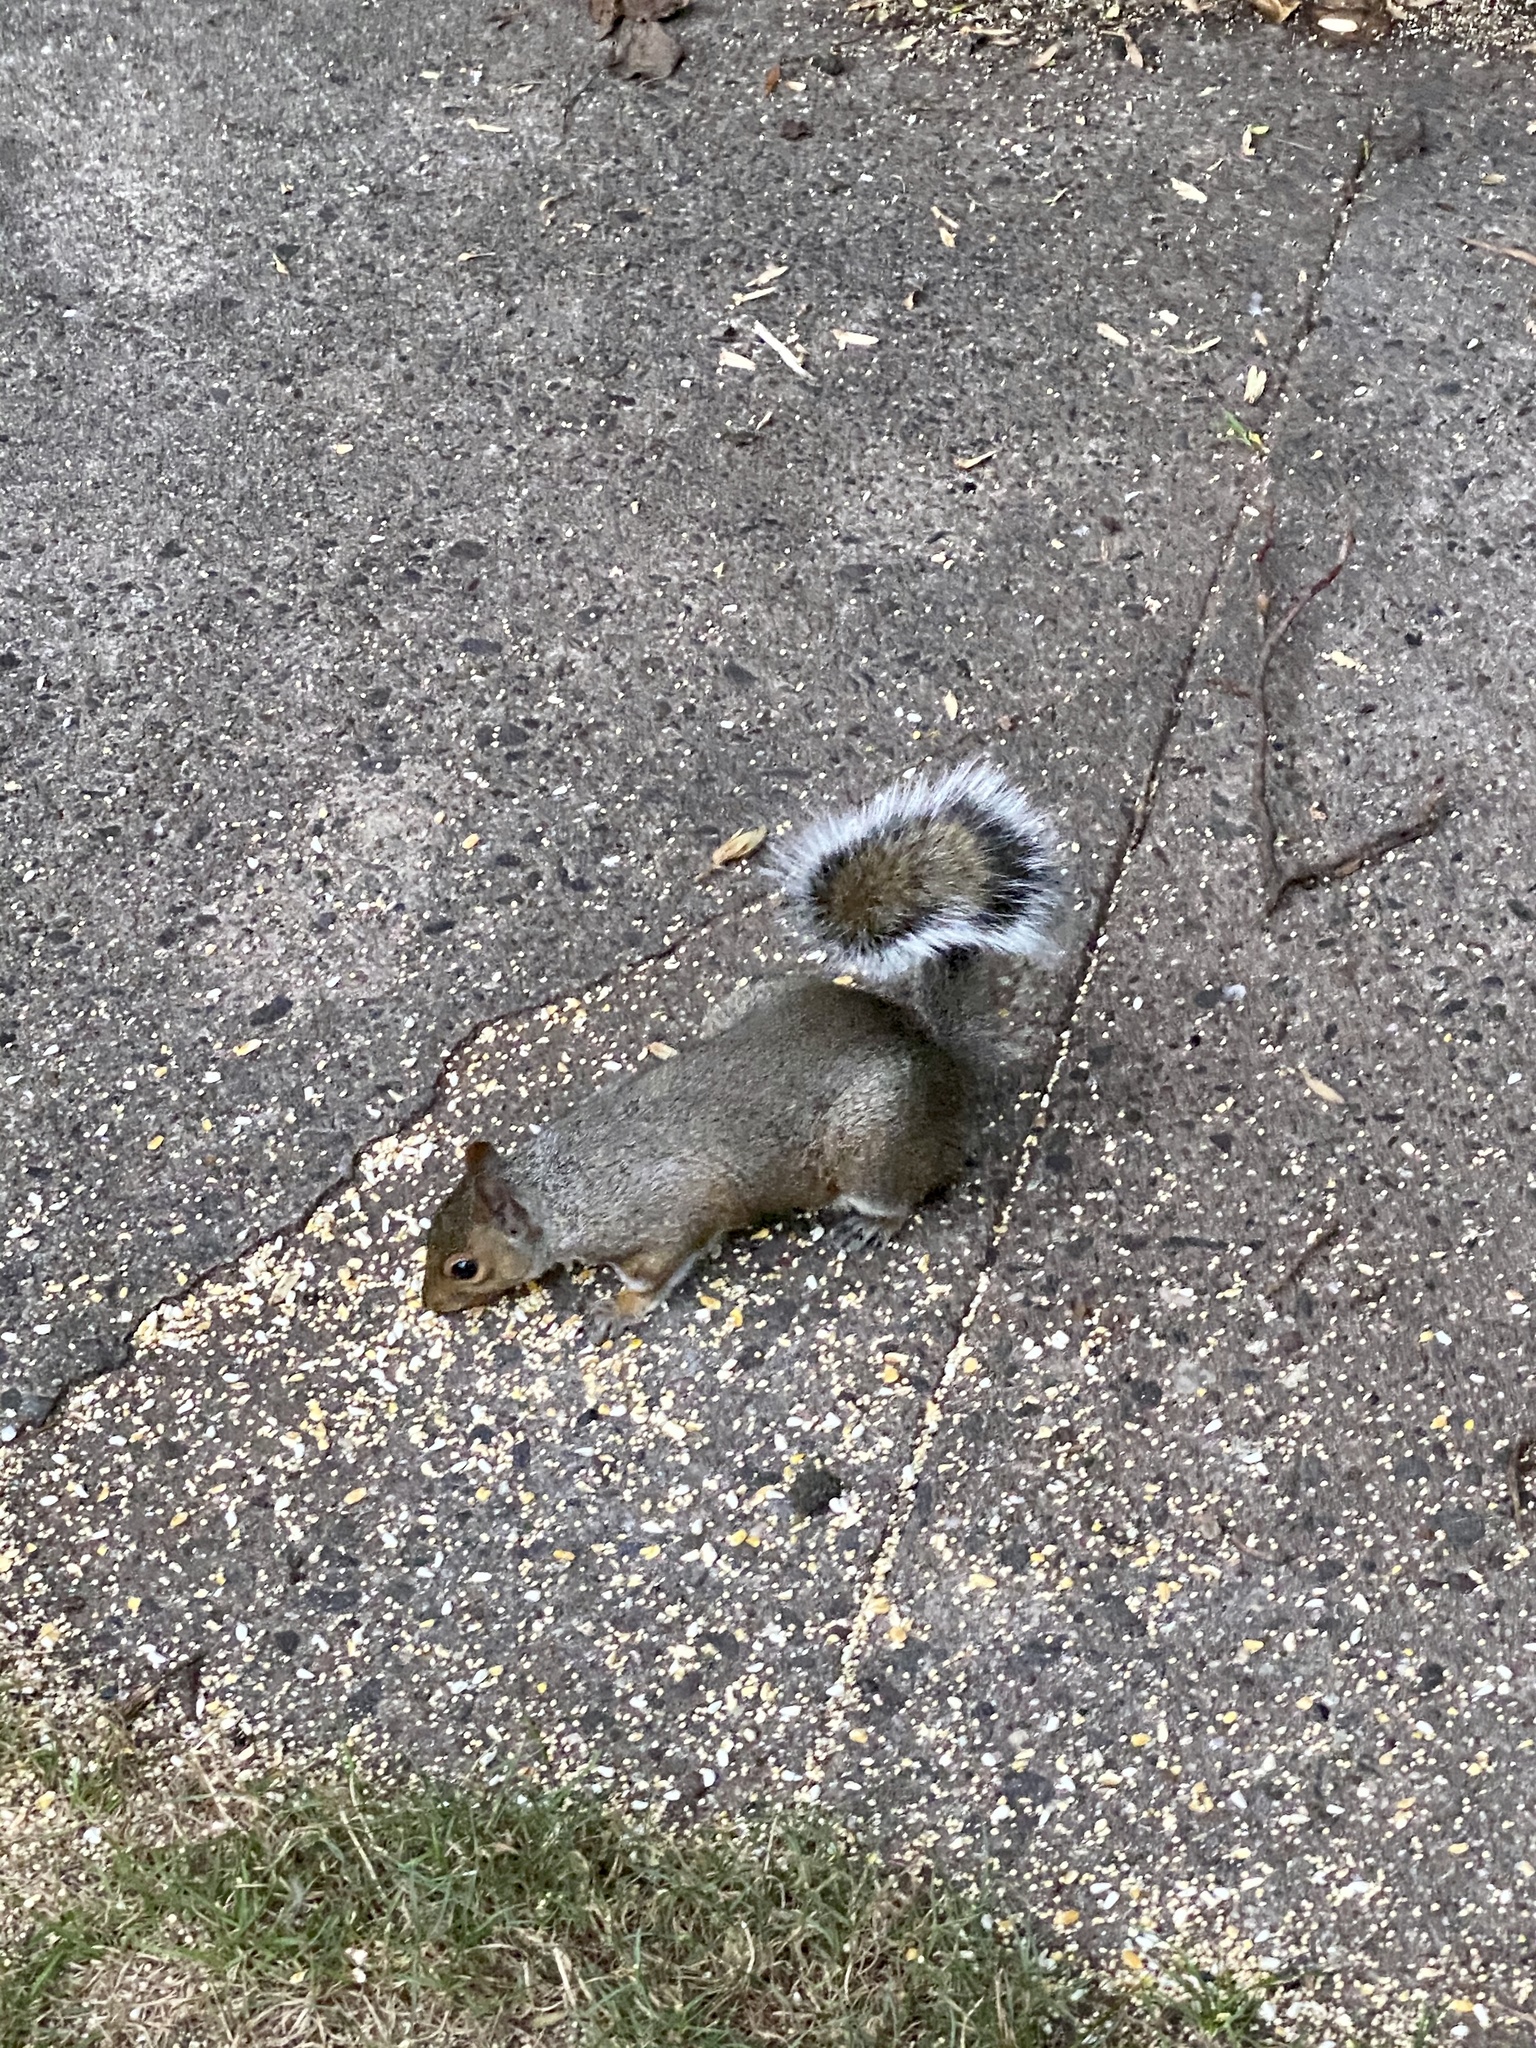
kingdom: Animalia
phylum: Chordata
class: Mammalia
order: Rodentia
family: Sciuridae
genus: Sciurus
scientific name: Sciurus carolinensis
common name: Eastern gray squirrel
